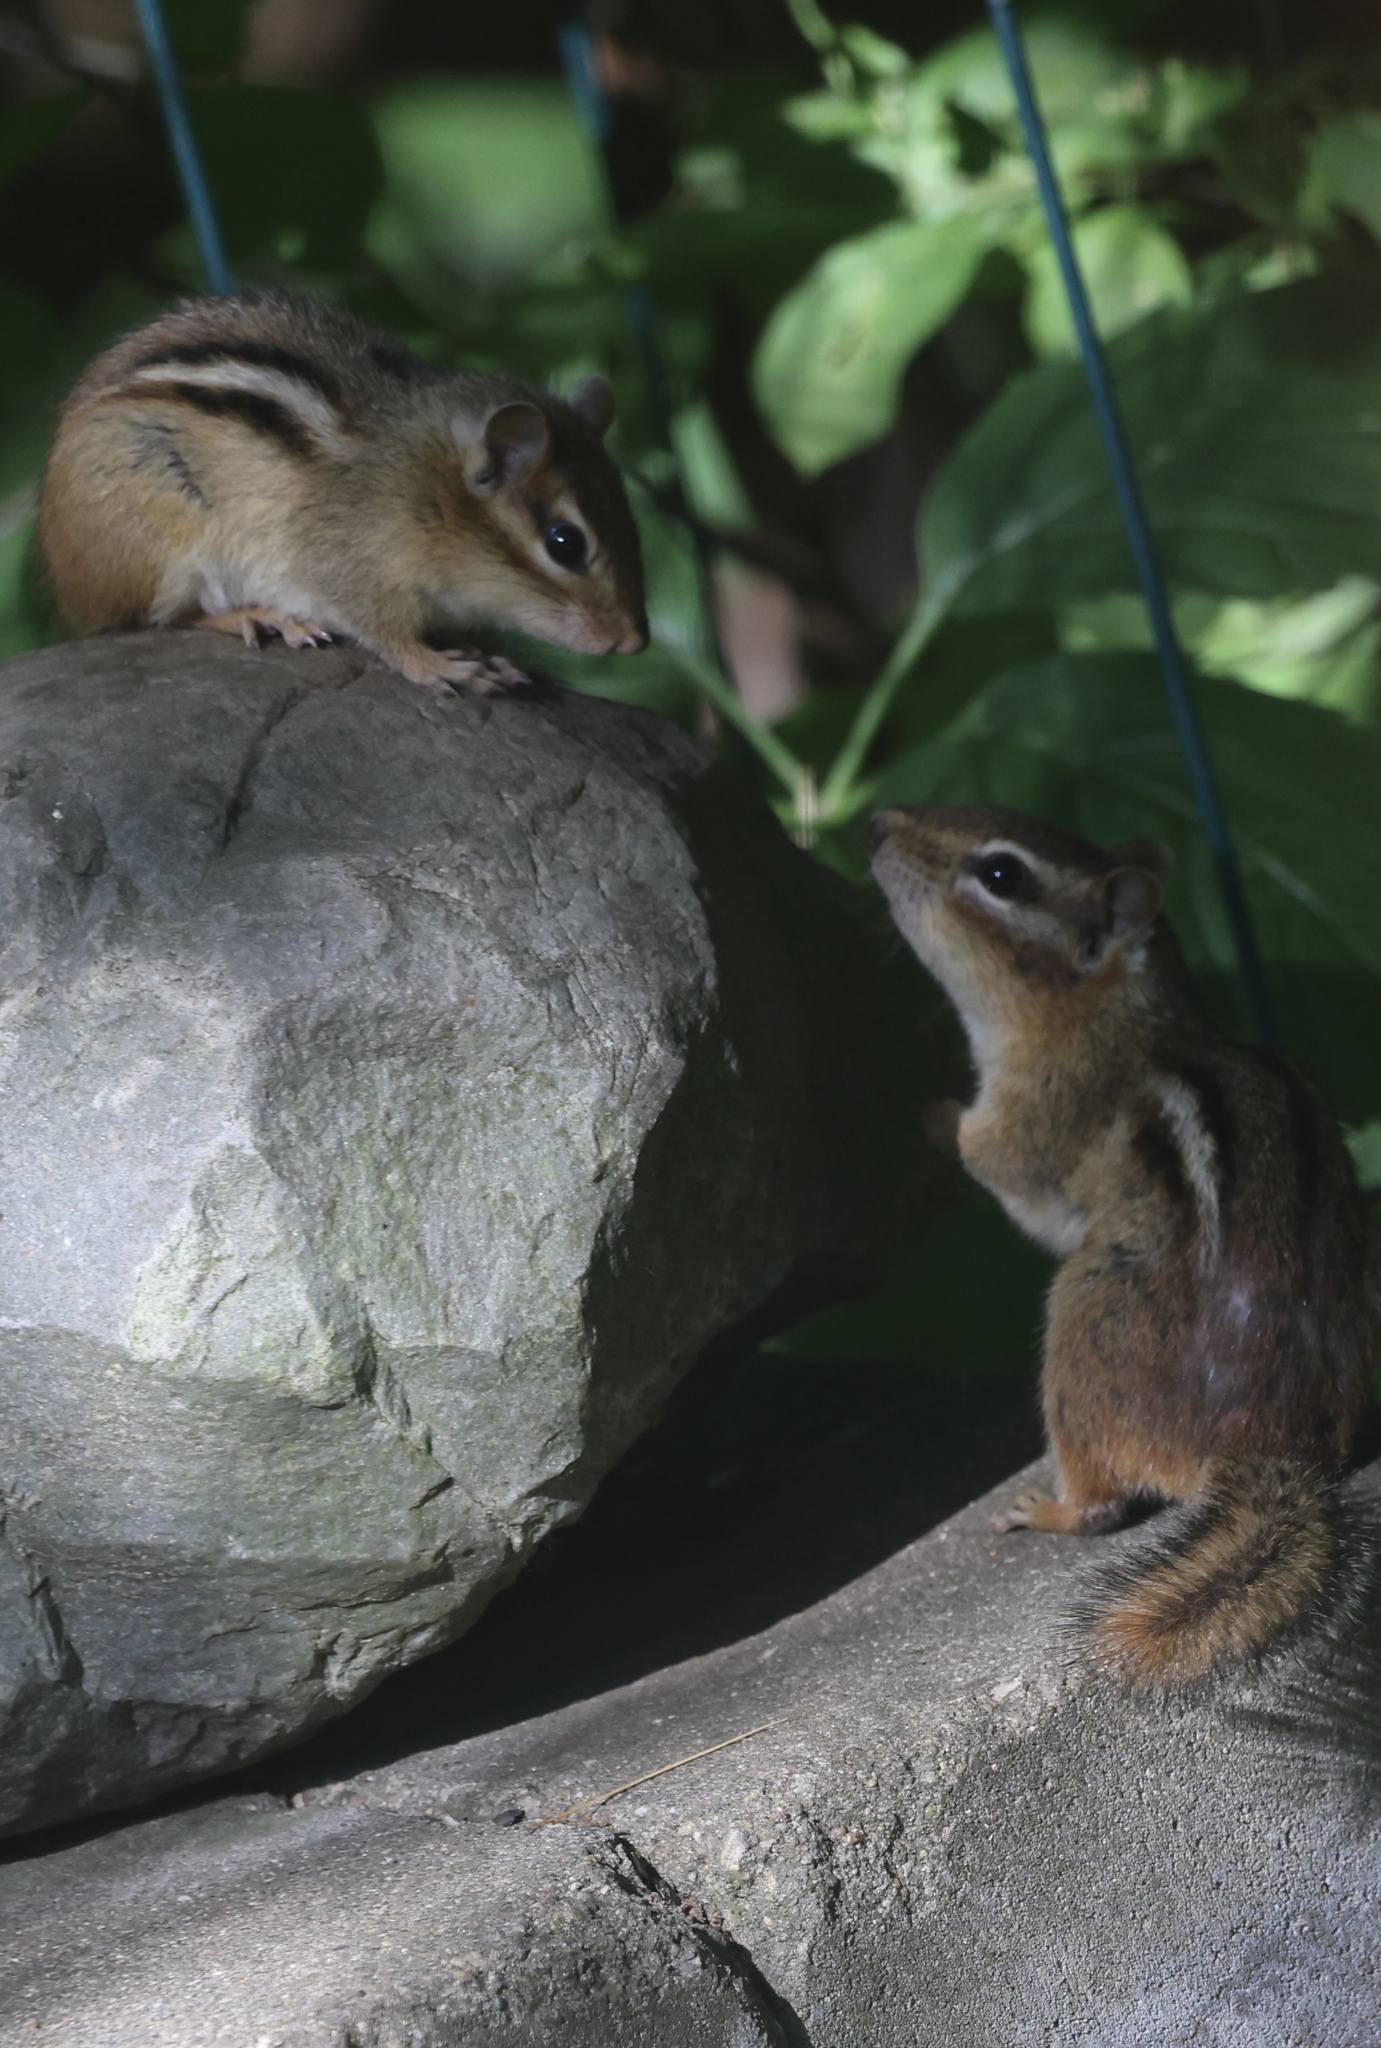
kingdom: Animalia
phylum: Chordata
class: Mammalia
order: Rodentia
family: Sciuridae
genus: Tamias
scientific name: Tamias striatus
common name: Eastern chipmunk
